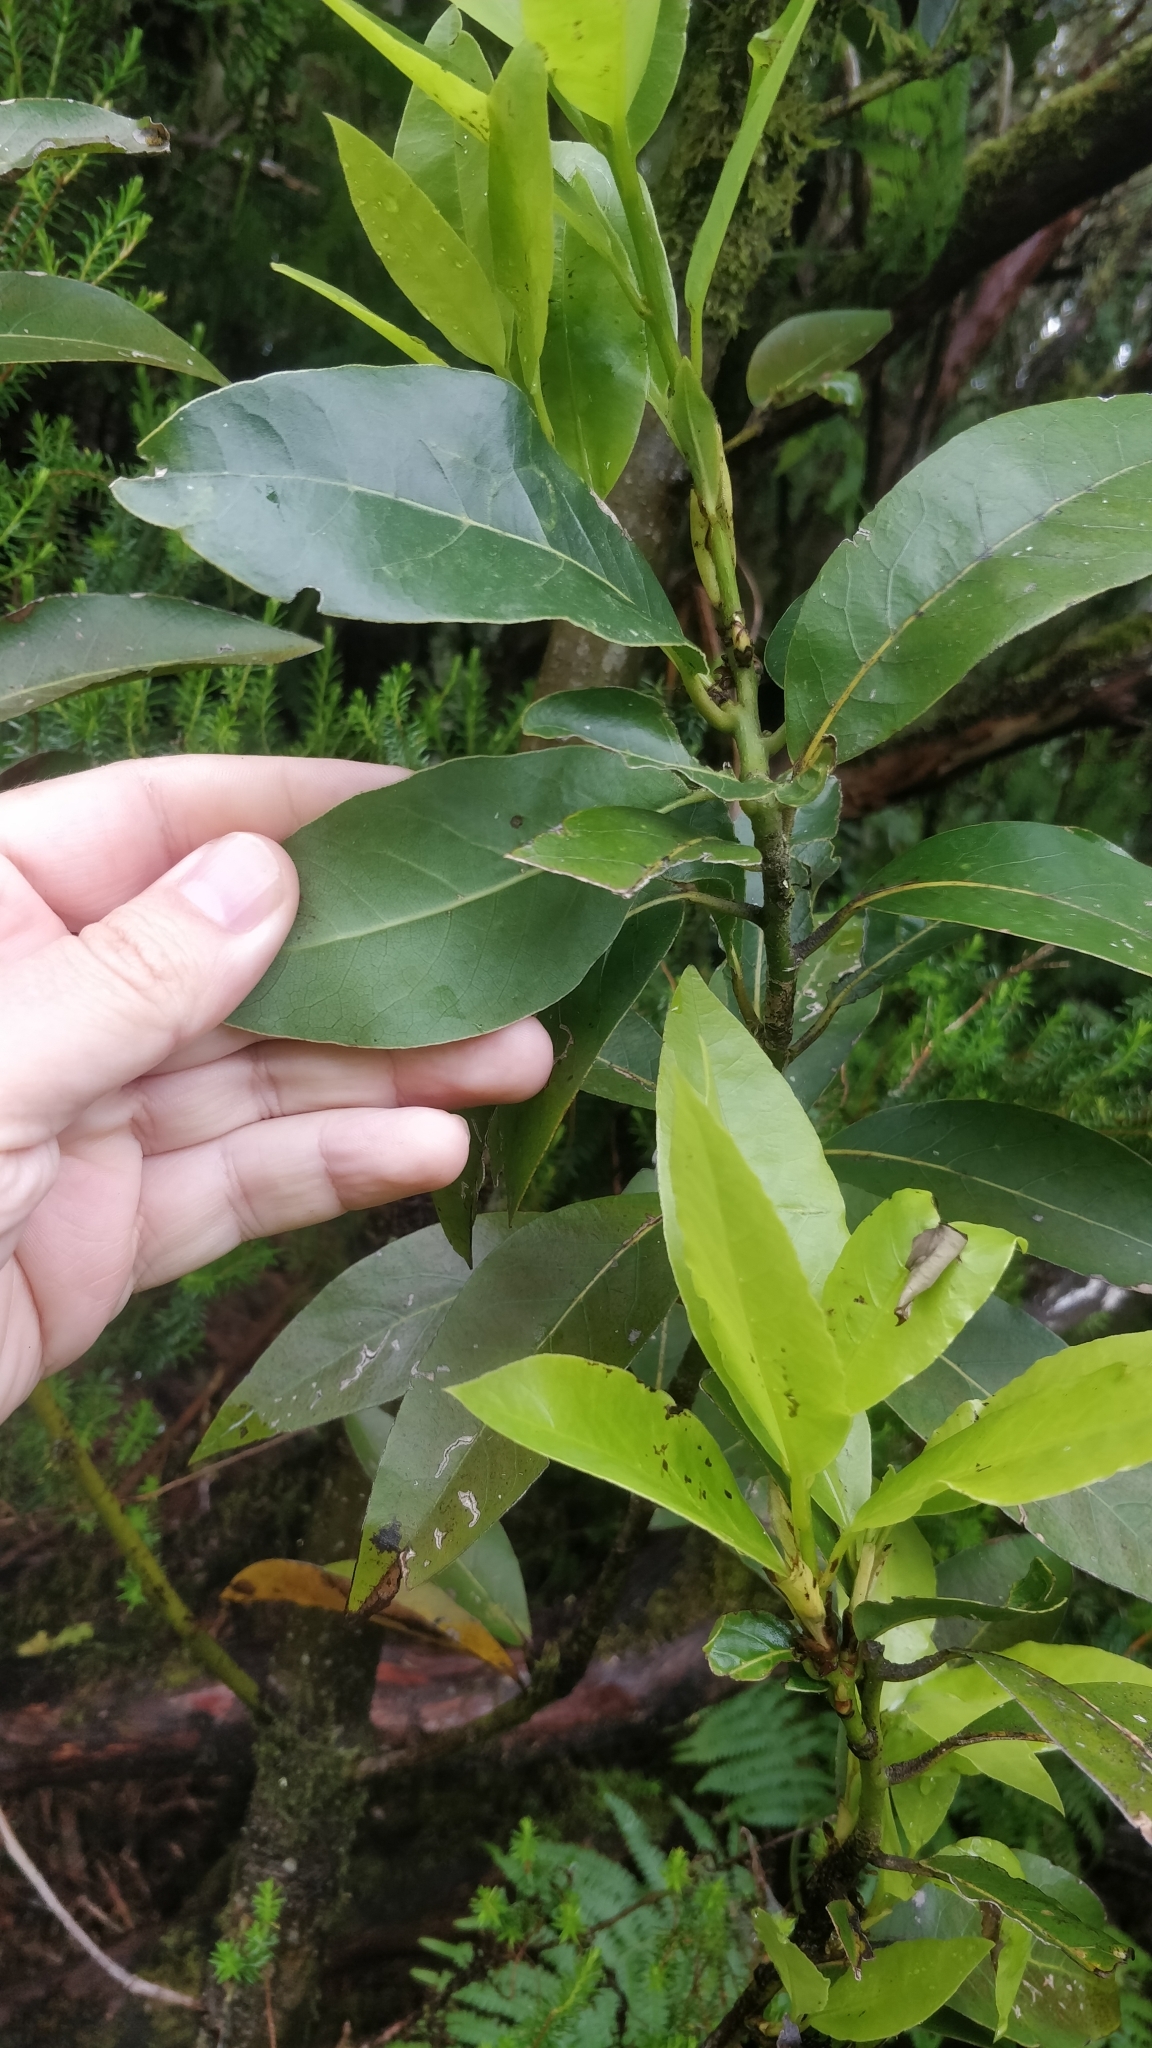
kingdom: Plantae
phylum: Tracheophyta
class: Magnoliopsida
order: Laurales
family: Lauraceae
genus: Laurus
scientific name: Laurus novocanariensis
